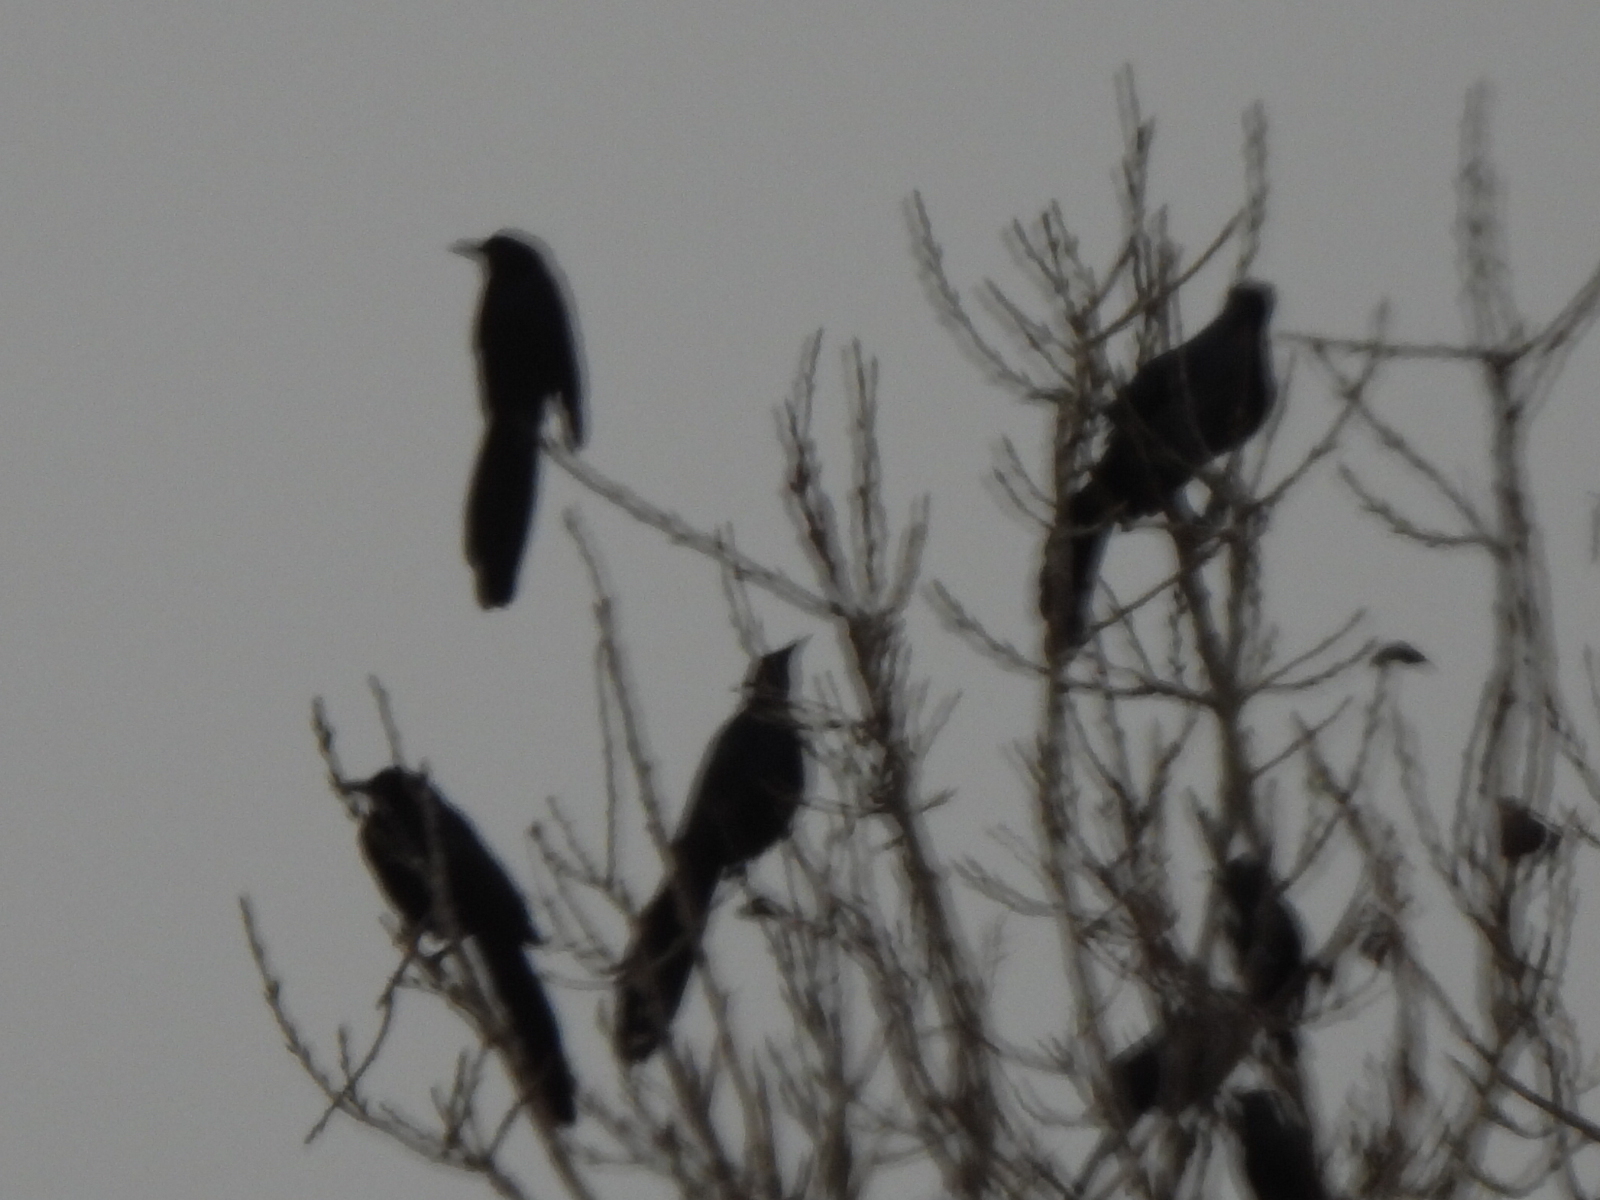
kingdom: Animalia
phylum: Chordata
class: Aves
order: Passeriformes
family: Icteridae
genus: Quiscalus
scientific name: Quiscalus mexicanus
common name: Great-tailed grackle
